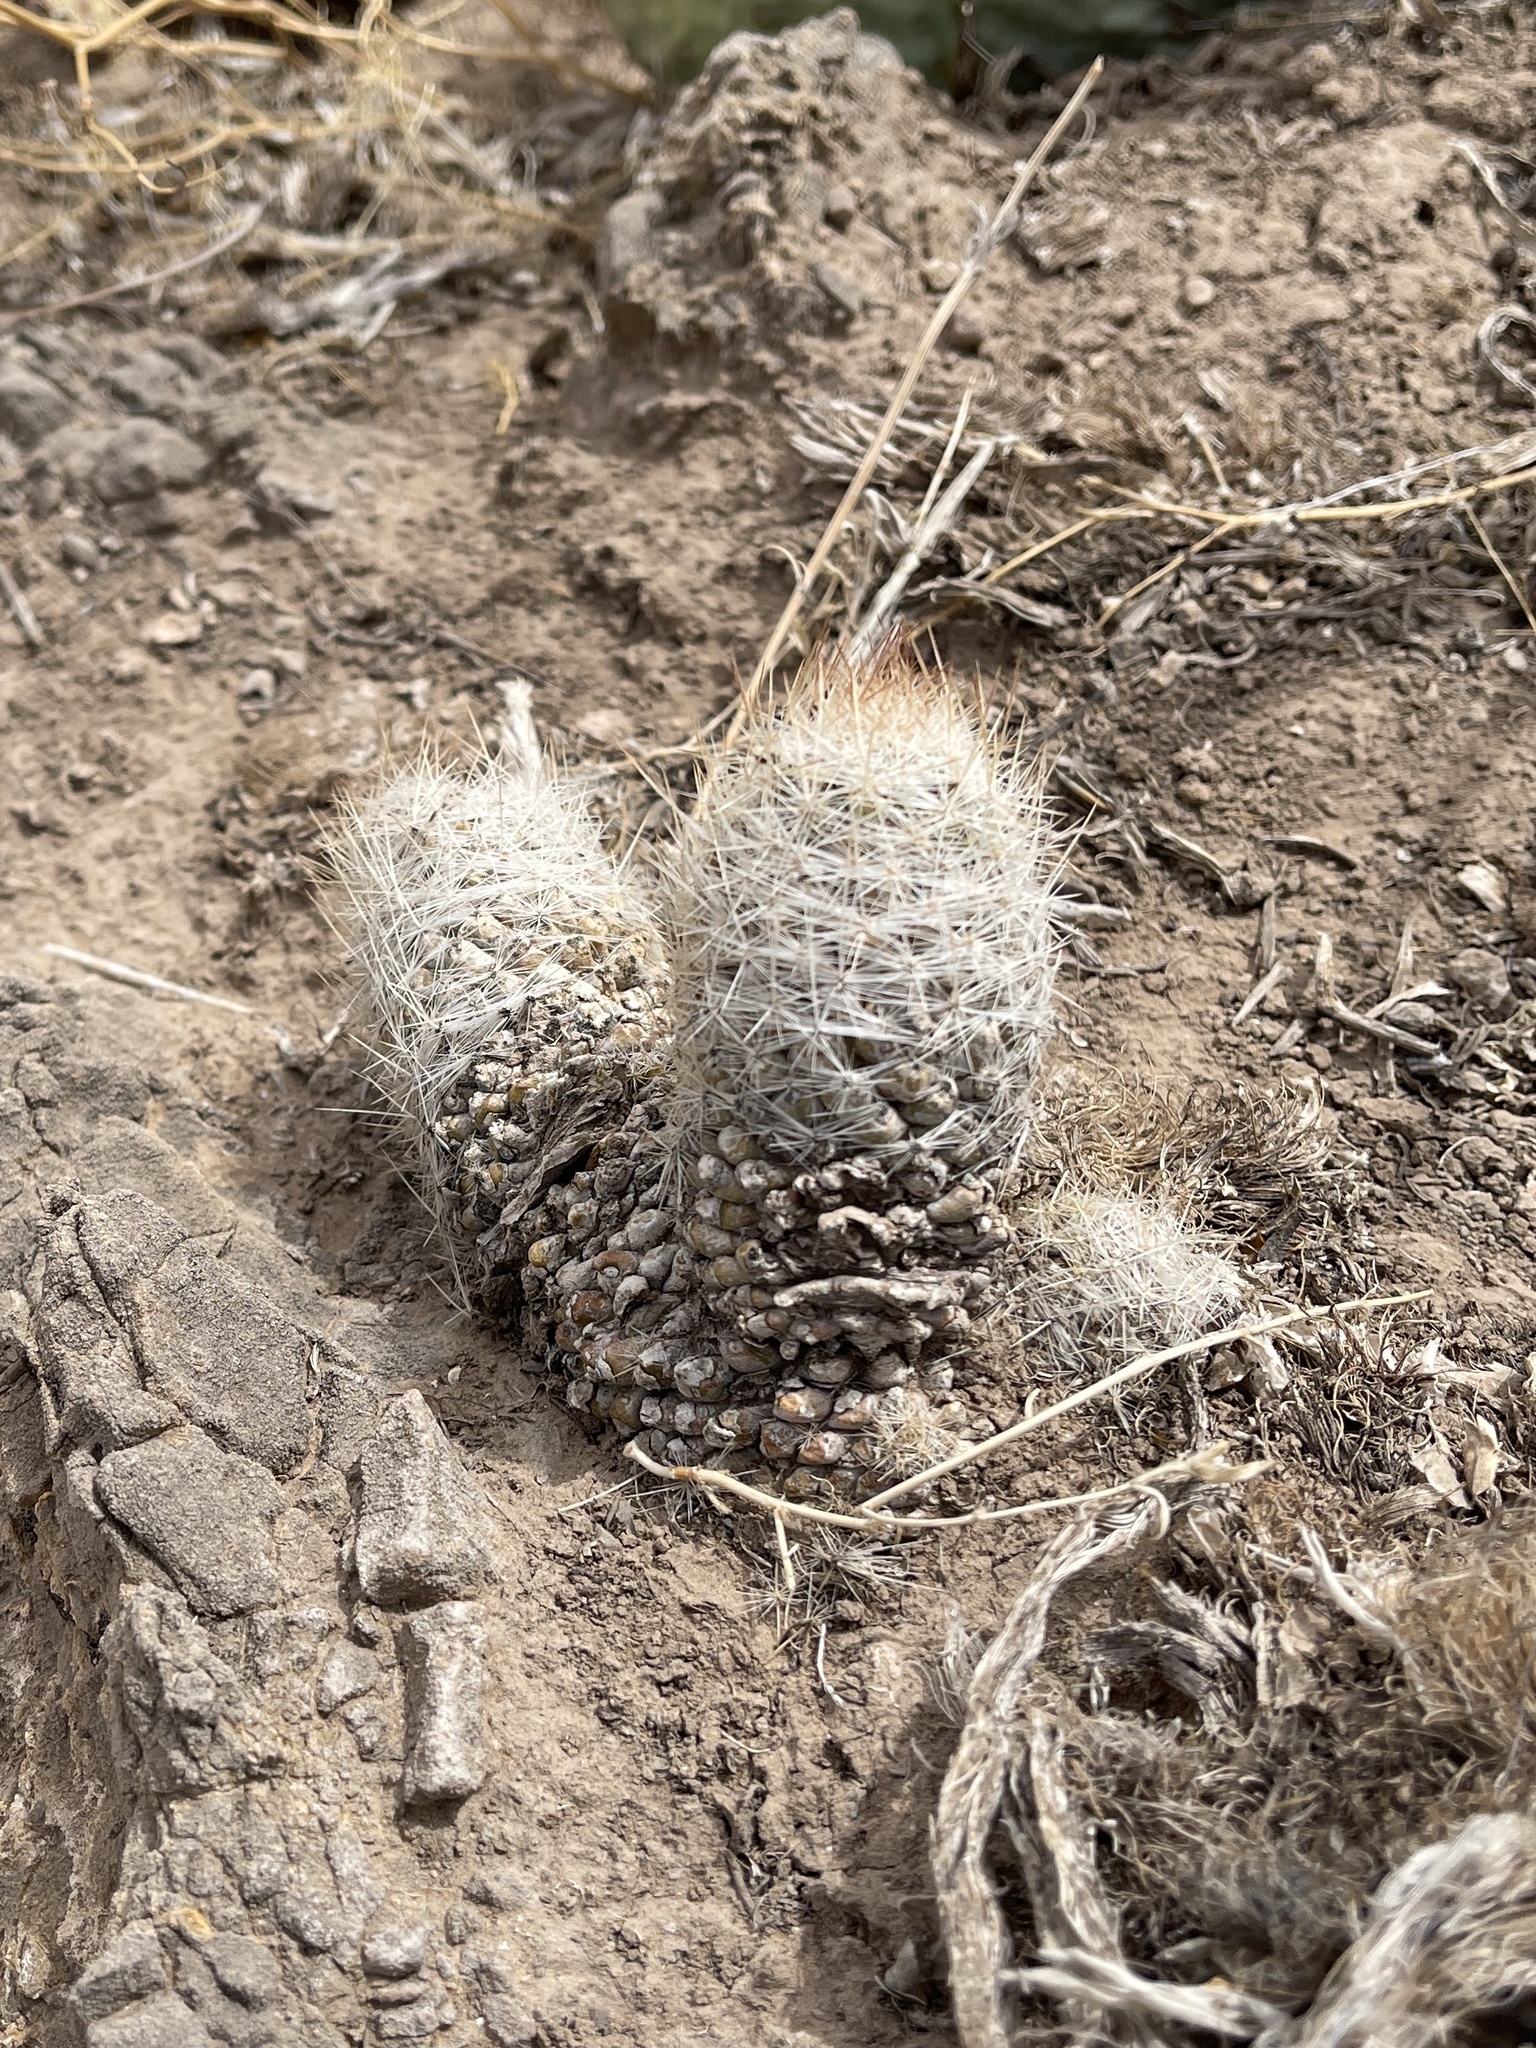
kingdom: Plantae
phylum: Tracheophyta
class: Magnoliopsida
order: Caryophyllales
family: Cactaceae
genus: Pelecyphora
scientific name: Pelecyphora tuberculosa
